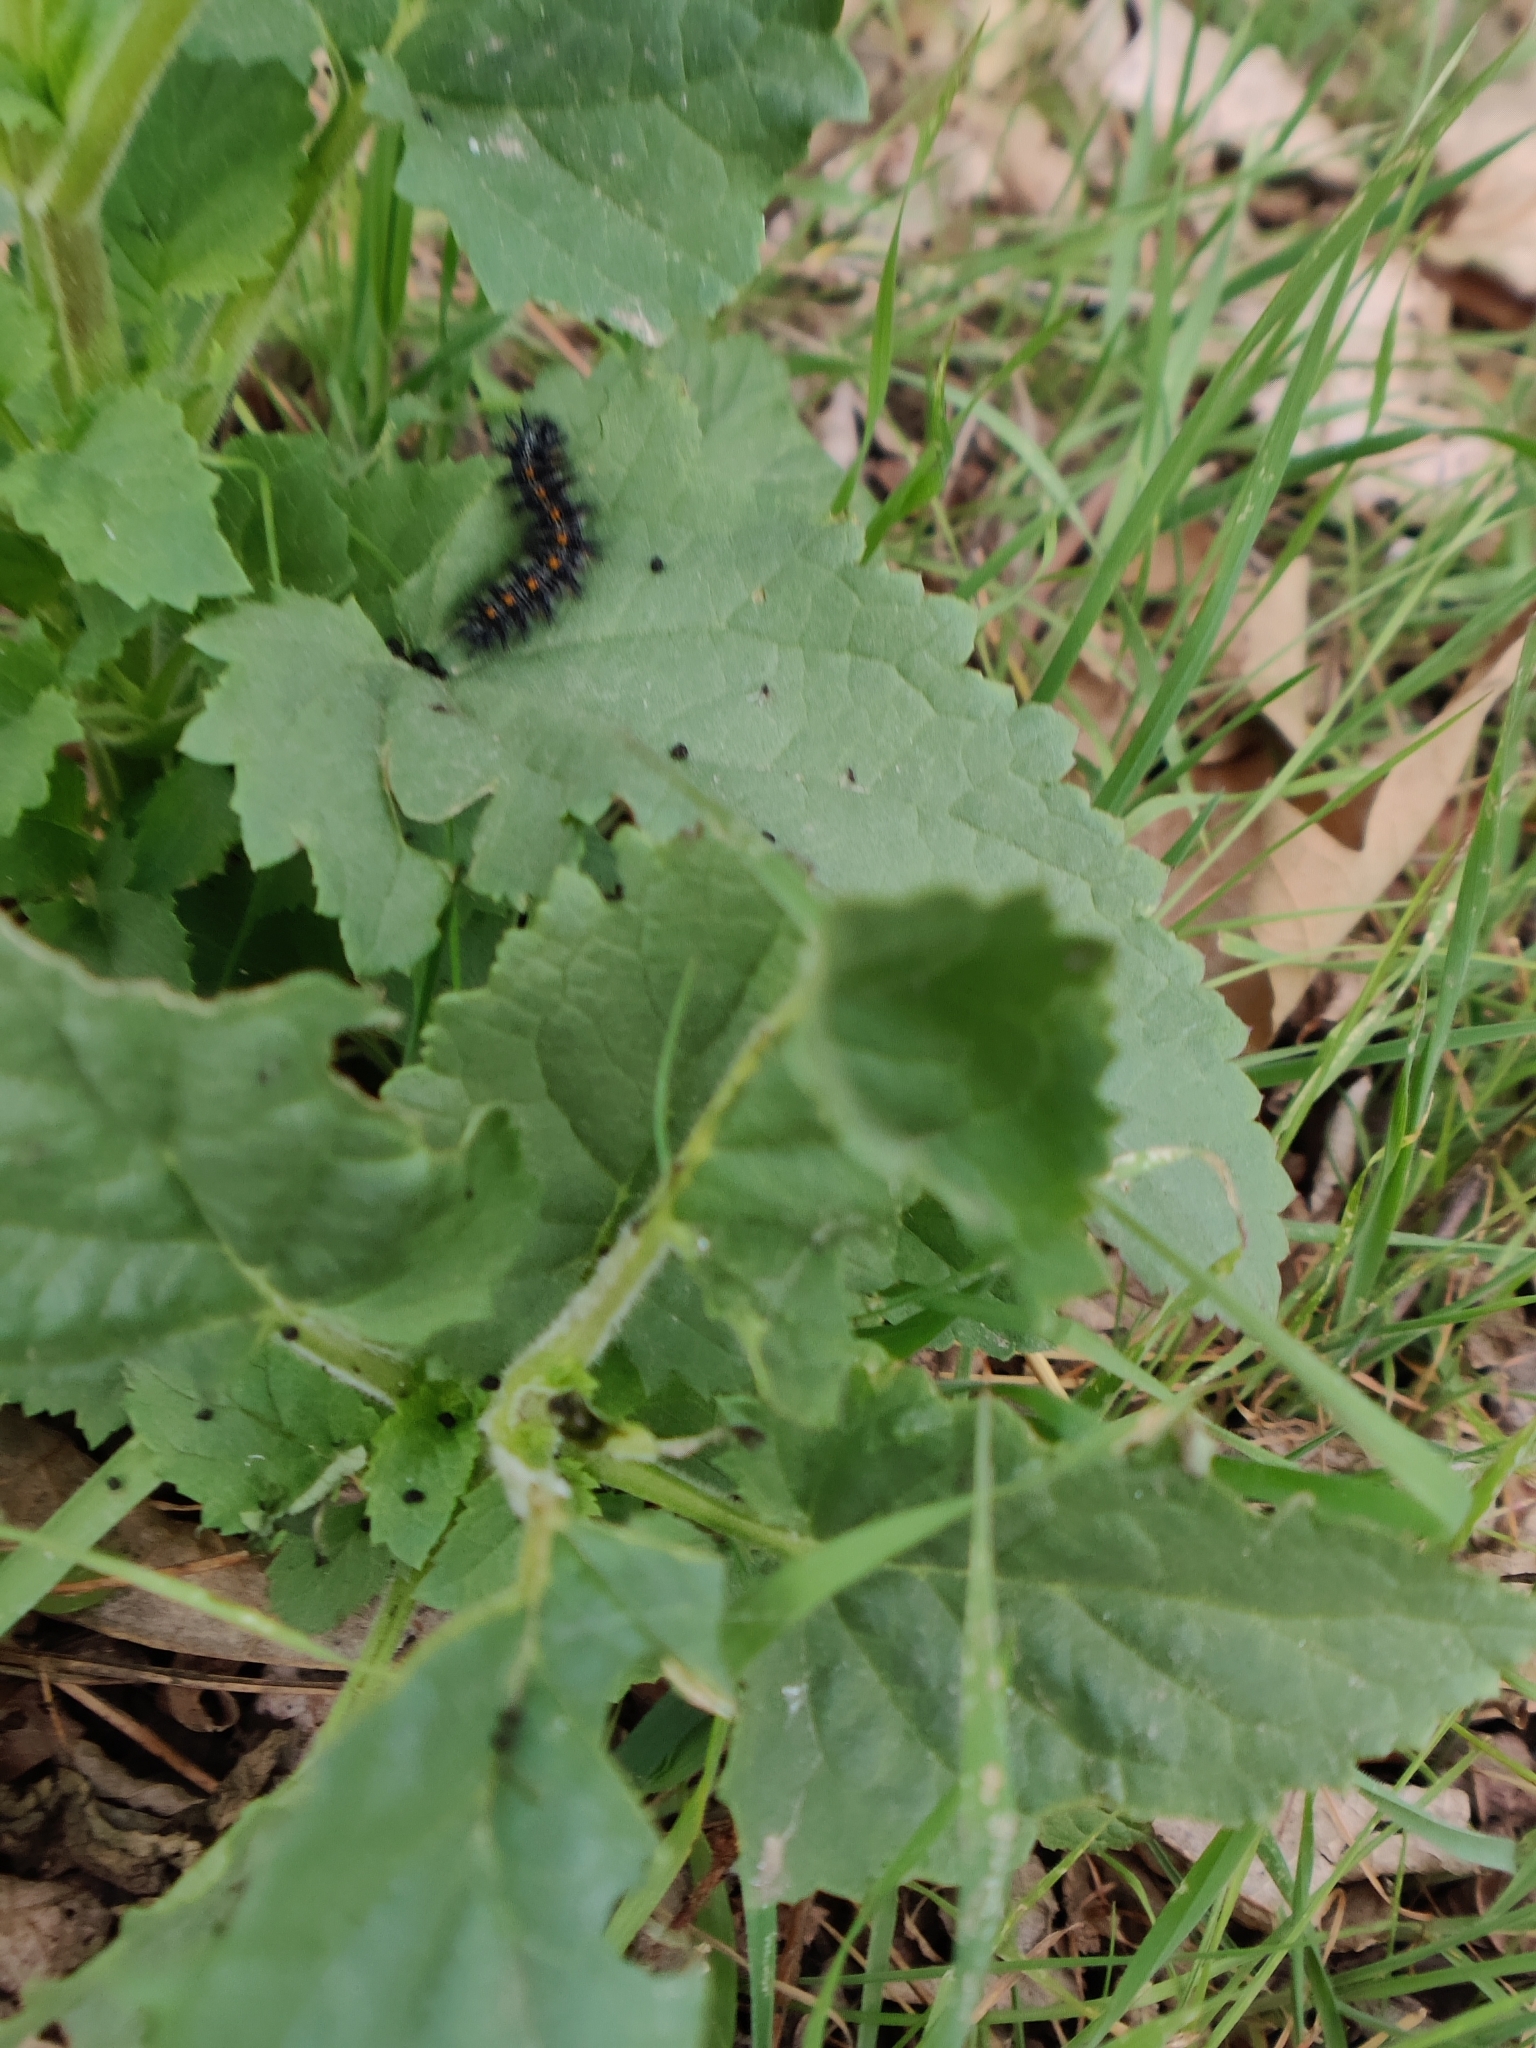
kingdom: Animalia
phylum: Arthropoda
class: Insecta
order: Lepidoptera
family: Nymphalidae
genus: Occidryas
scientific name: Occidryas chalcedona
